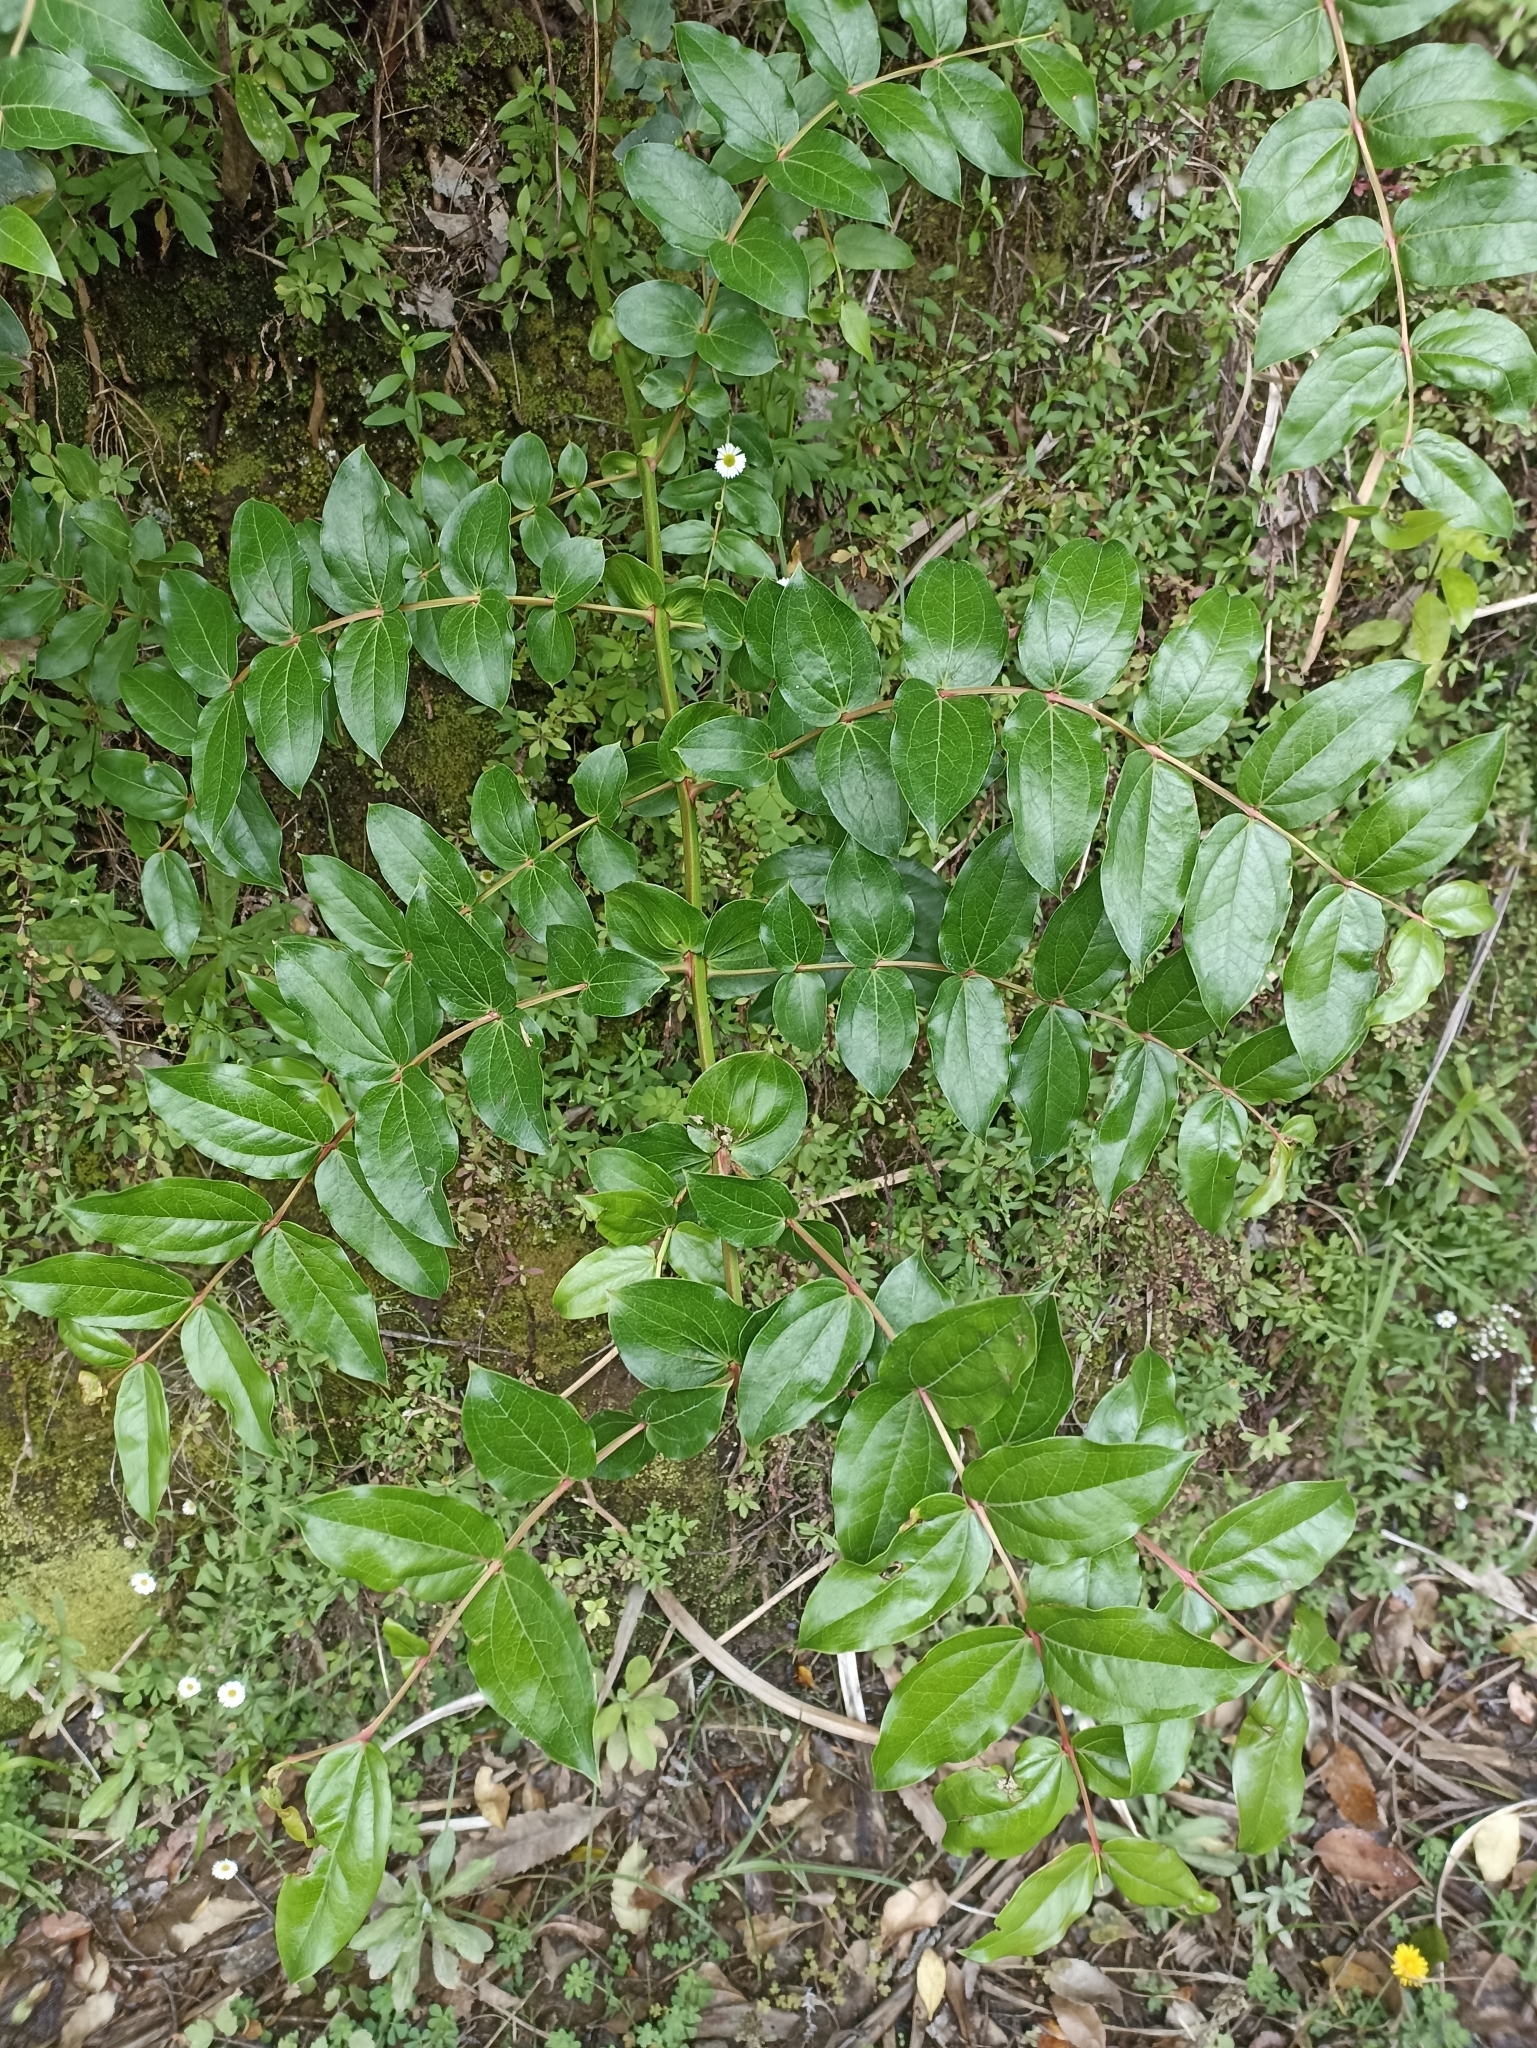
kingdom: Plantae
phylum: Tracheophyta
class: Magnoliopsida
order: Cucurbitales
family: Coriariaceae
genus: Coriaria
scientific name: Coriaria arborea
